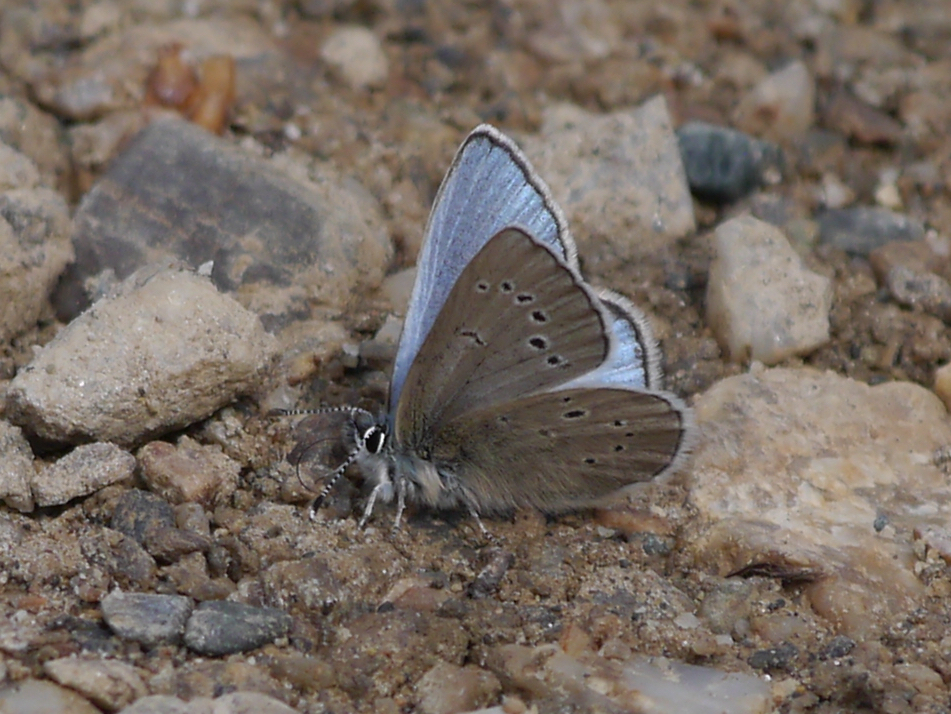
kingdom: Animalia
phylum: Arthropoda
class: Insecta
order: Lepidoptera
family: Lycaenidae
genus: Glaucopsyche
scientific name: Glaucopsyche lygdamus
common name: Silvery blue
